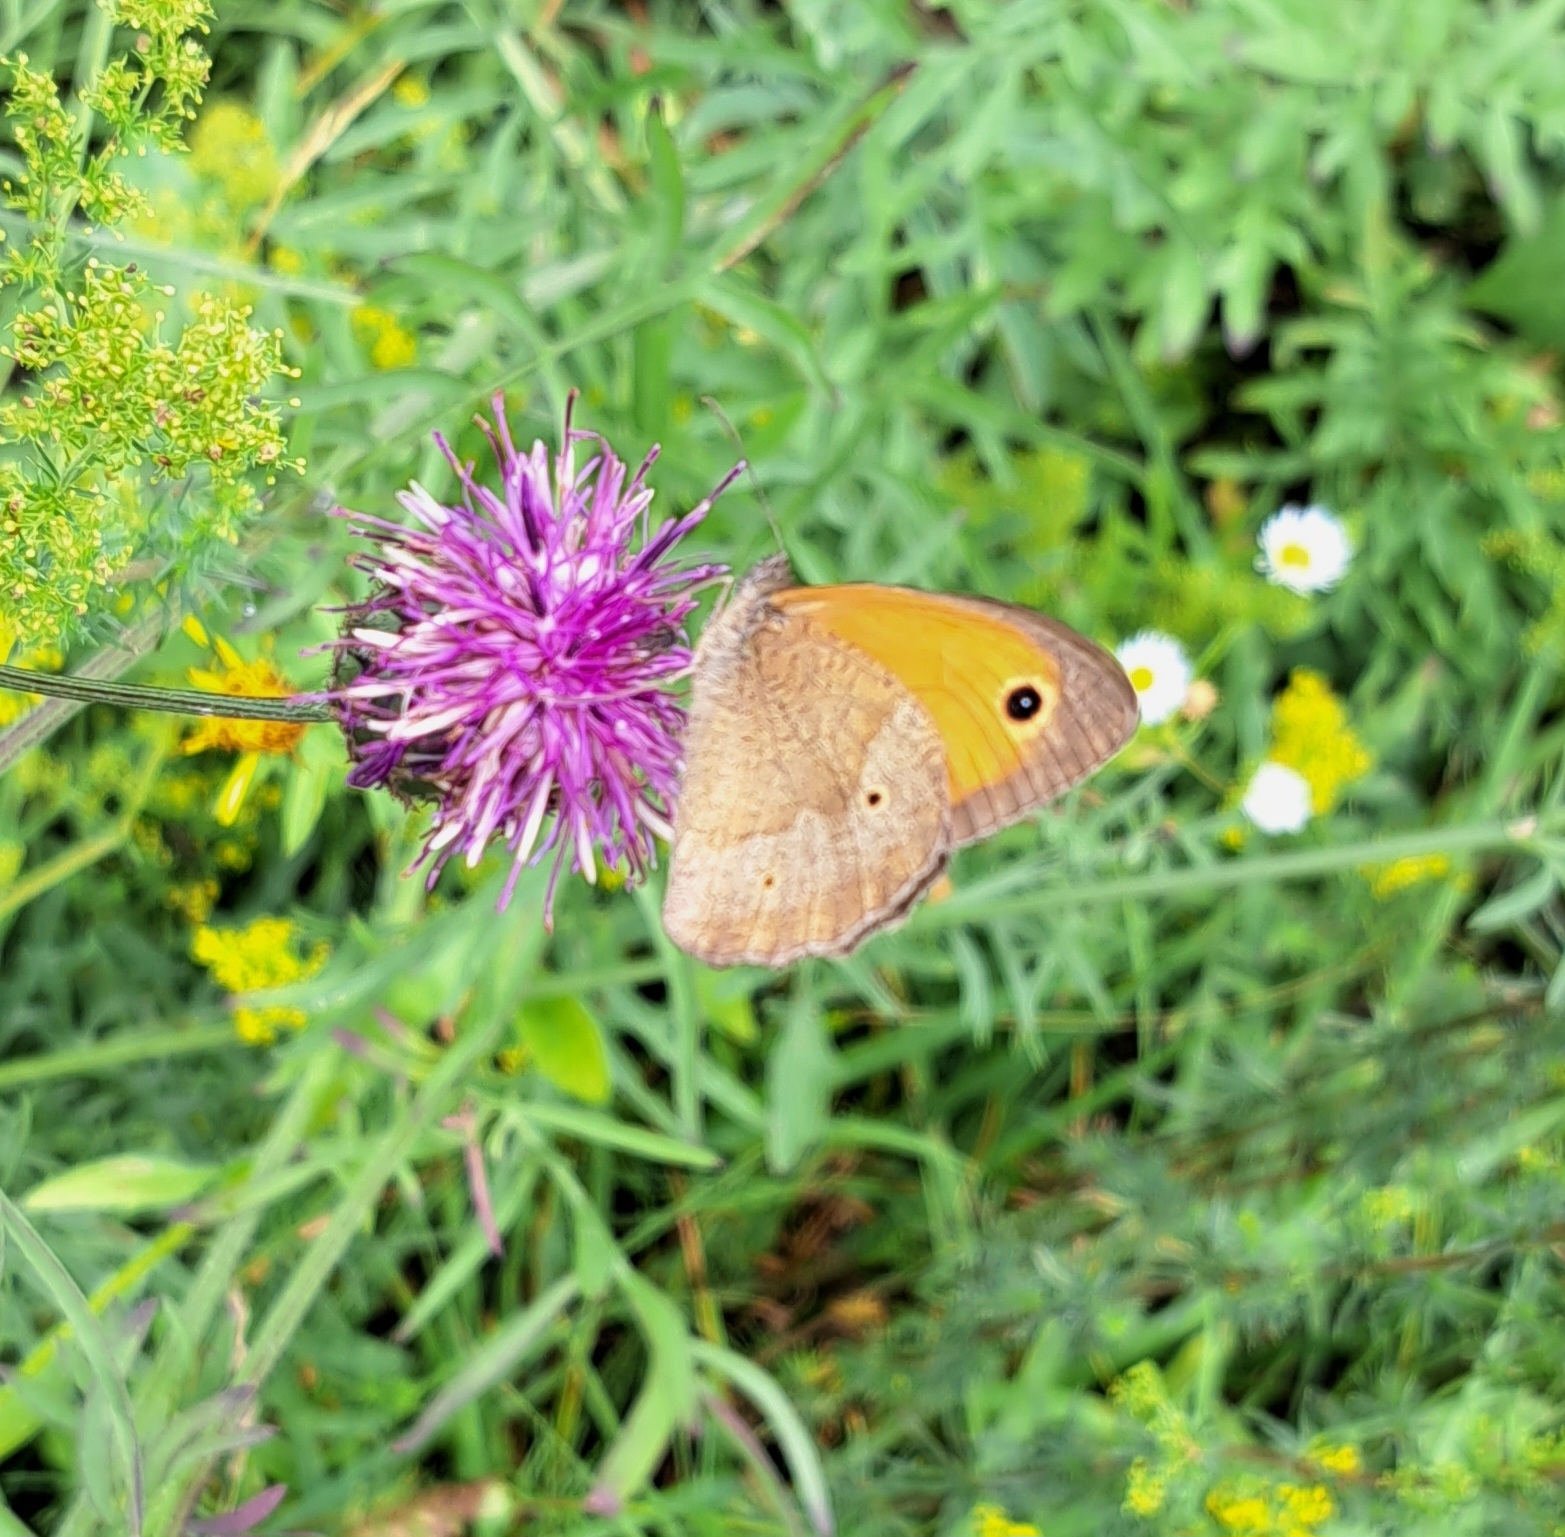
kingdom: Animalia
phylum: Arthropoda
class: Insecta
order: Lepidoptera
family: Nymphalidae
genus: Maniola
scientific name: Maniola jurtina
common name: Meadow brown
